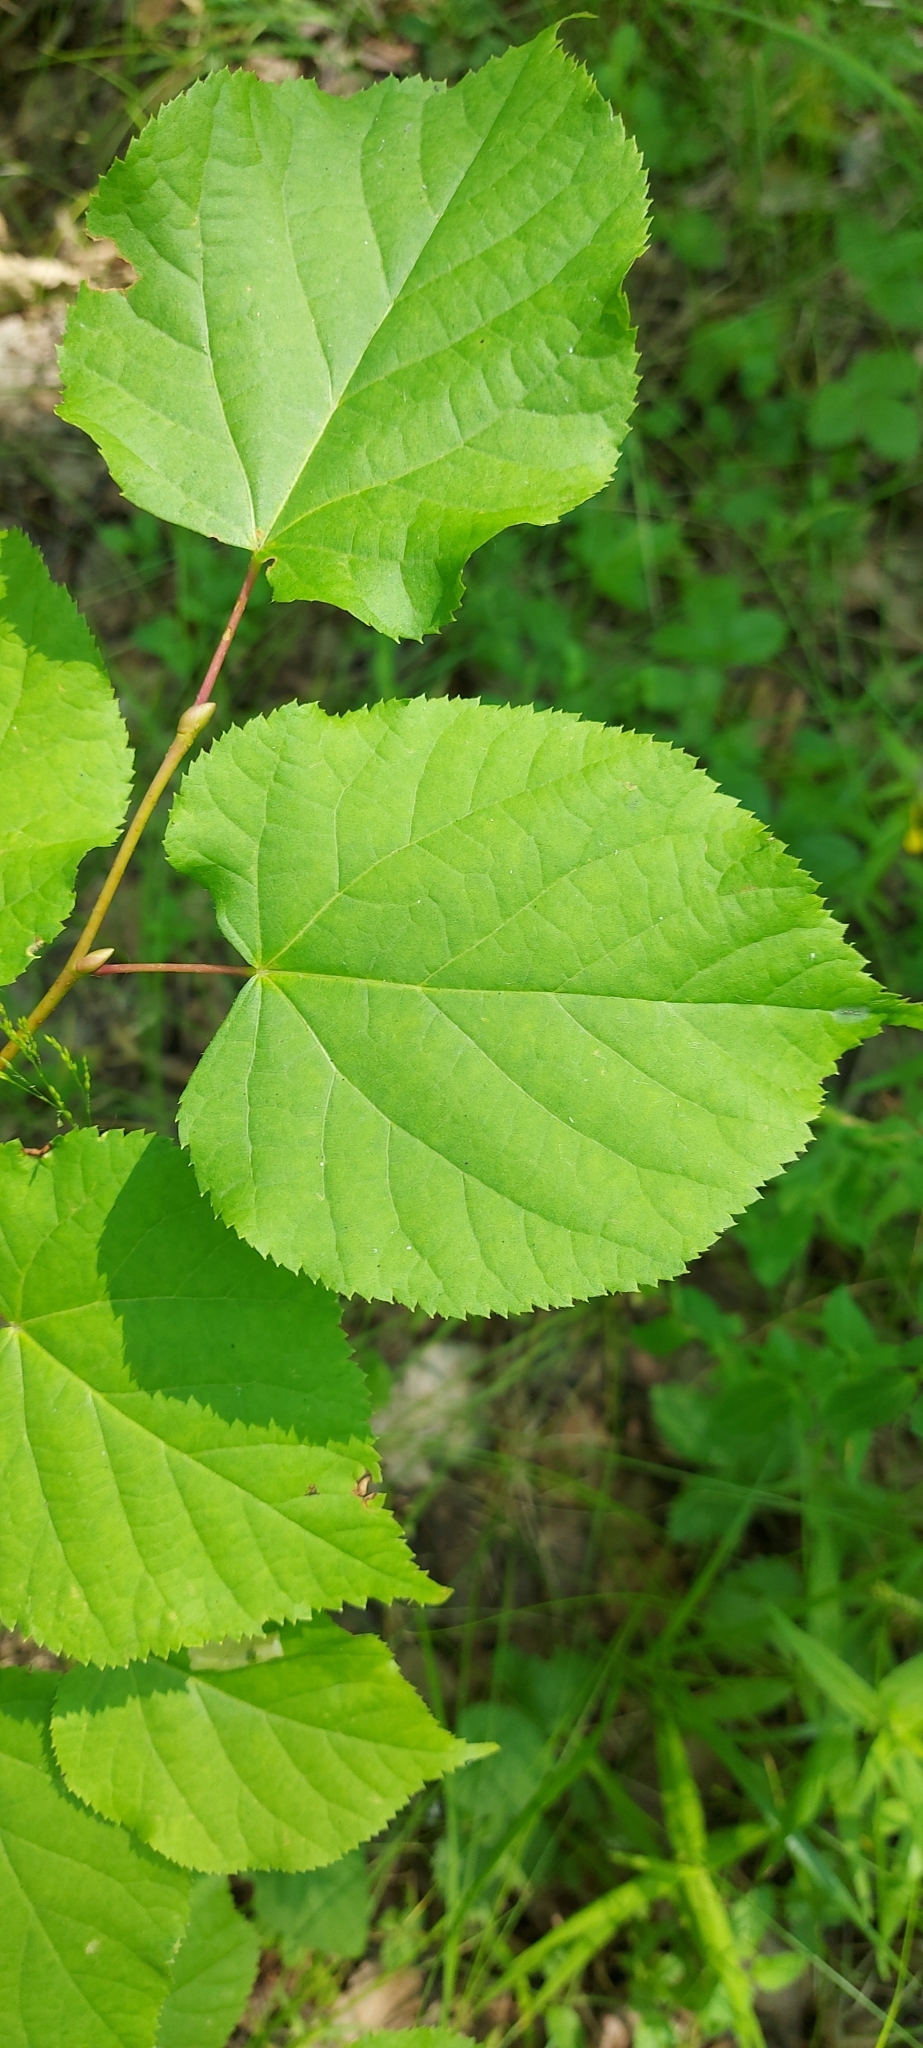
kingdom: Plantae
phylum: Tracheophyta
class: Magnoliopsida
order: Malvales
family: Malvaceae
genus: Tilia
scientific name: Tilia cordata
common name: Small-leaved lime
